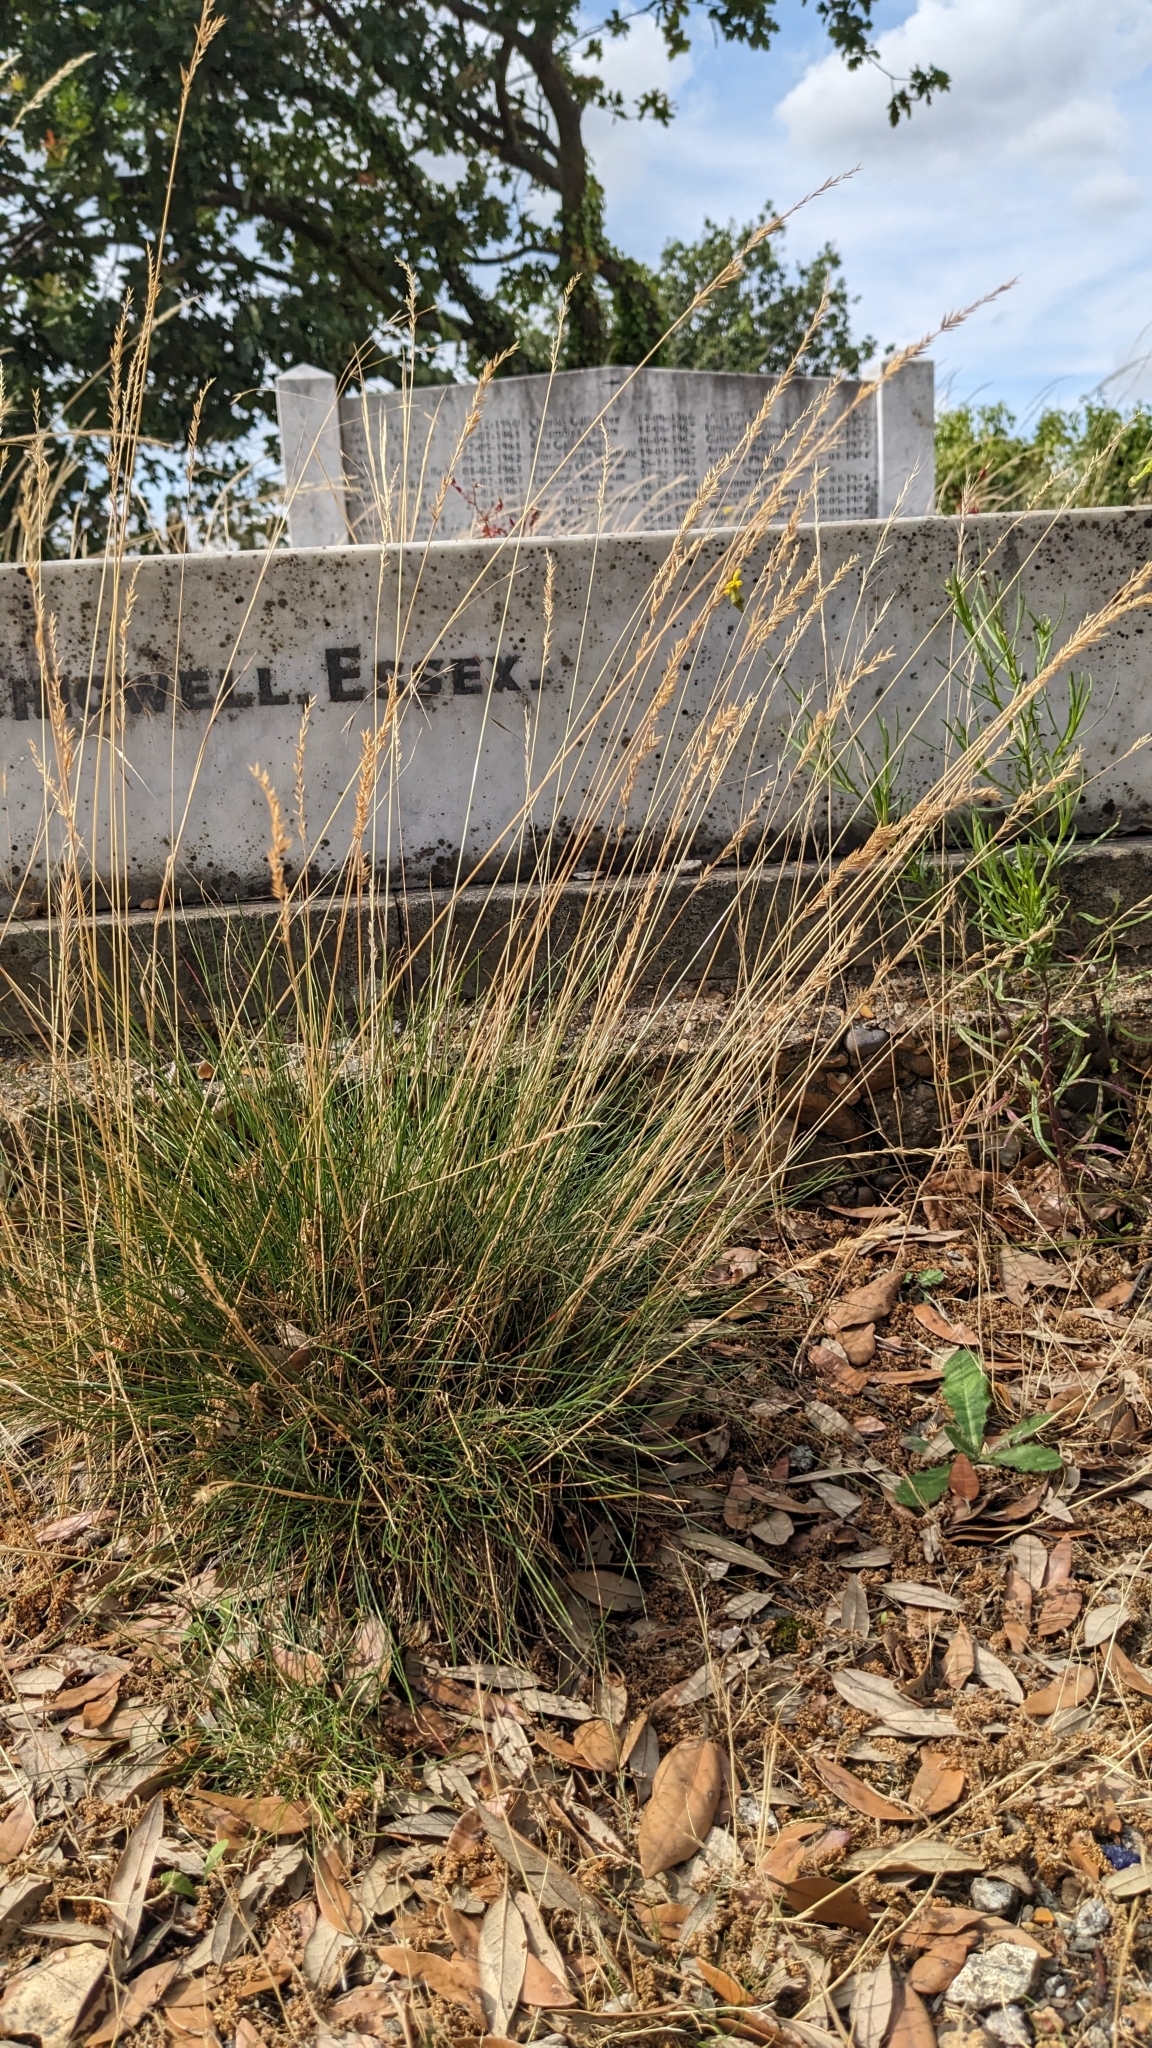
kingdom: Plantae
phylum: Tracheophyta
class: Liliopsida
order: Poales
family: Poaceae
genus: Festuca
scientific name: Festuca rubra
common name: Red fescue
